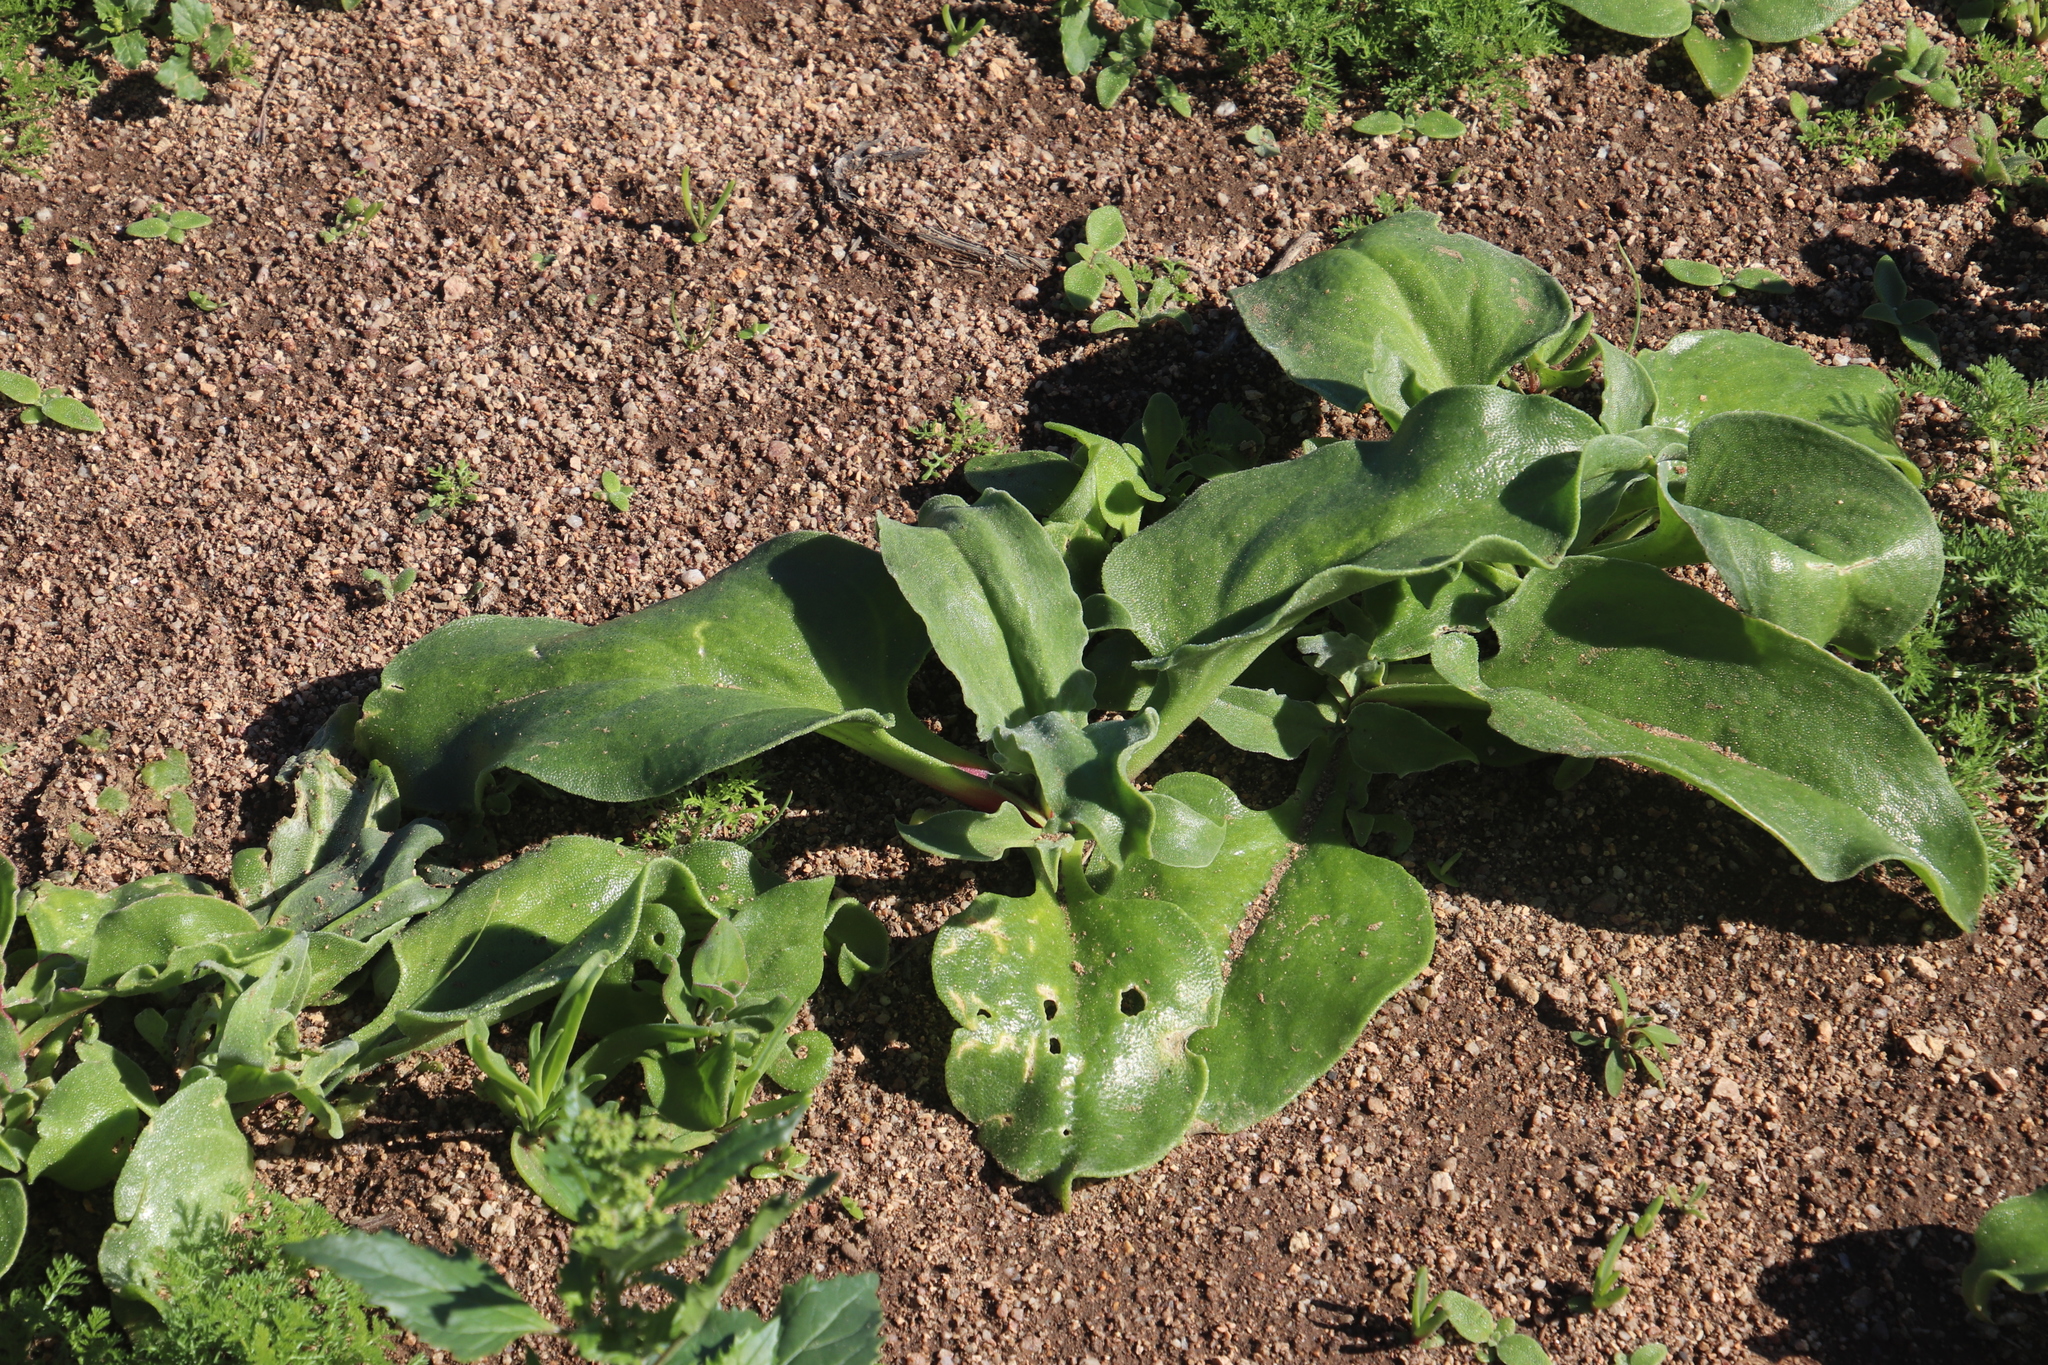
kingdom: Plantae
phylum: Tracheophyta
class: Magnoliopsida
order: Caryophyllales
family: Aizoaceae
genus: Mesembryanthemum
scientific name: Mesembryanthemum guerichianum
